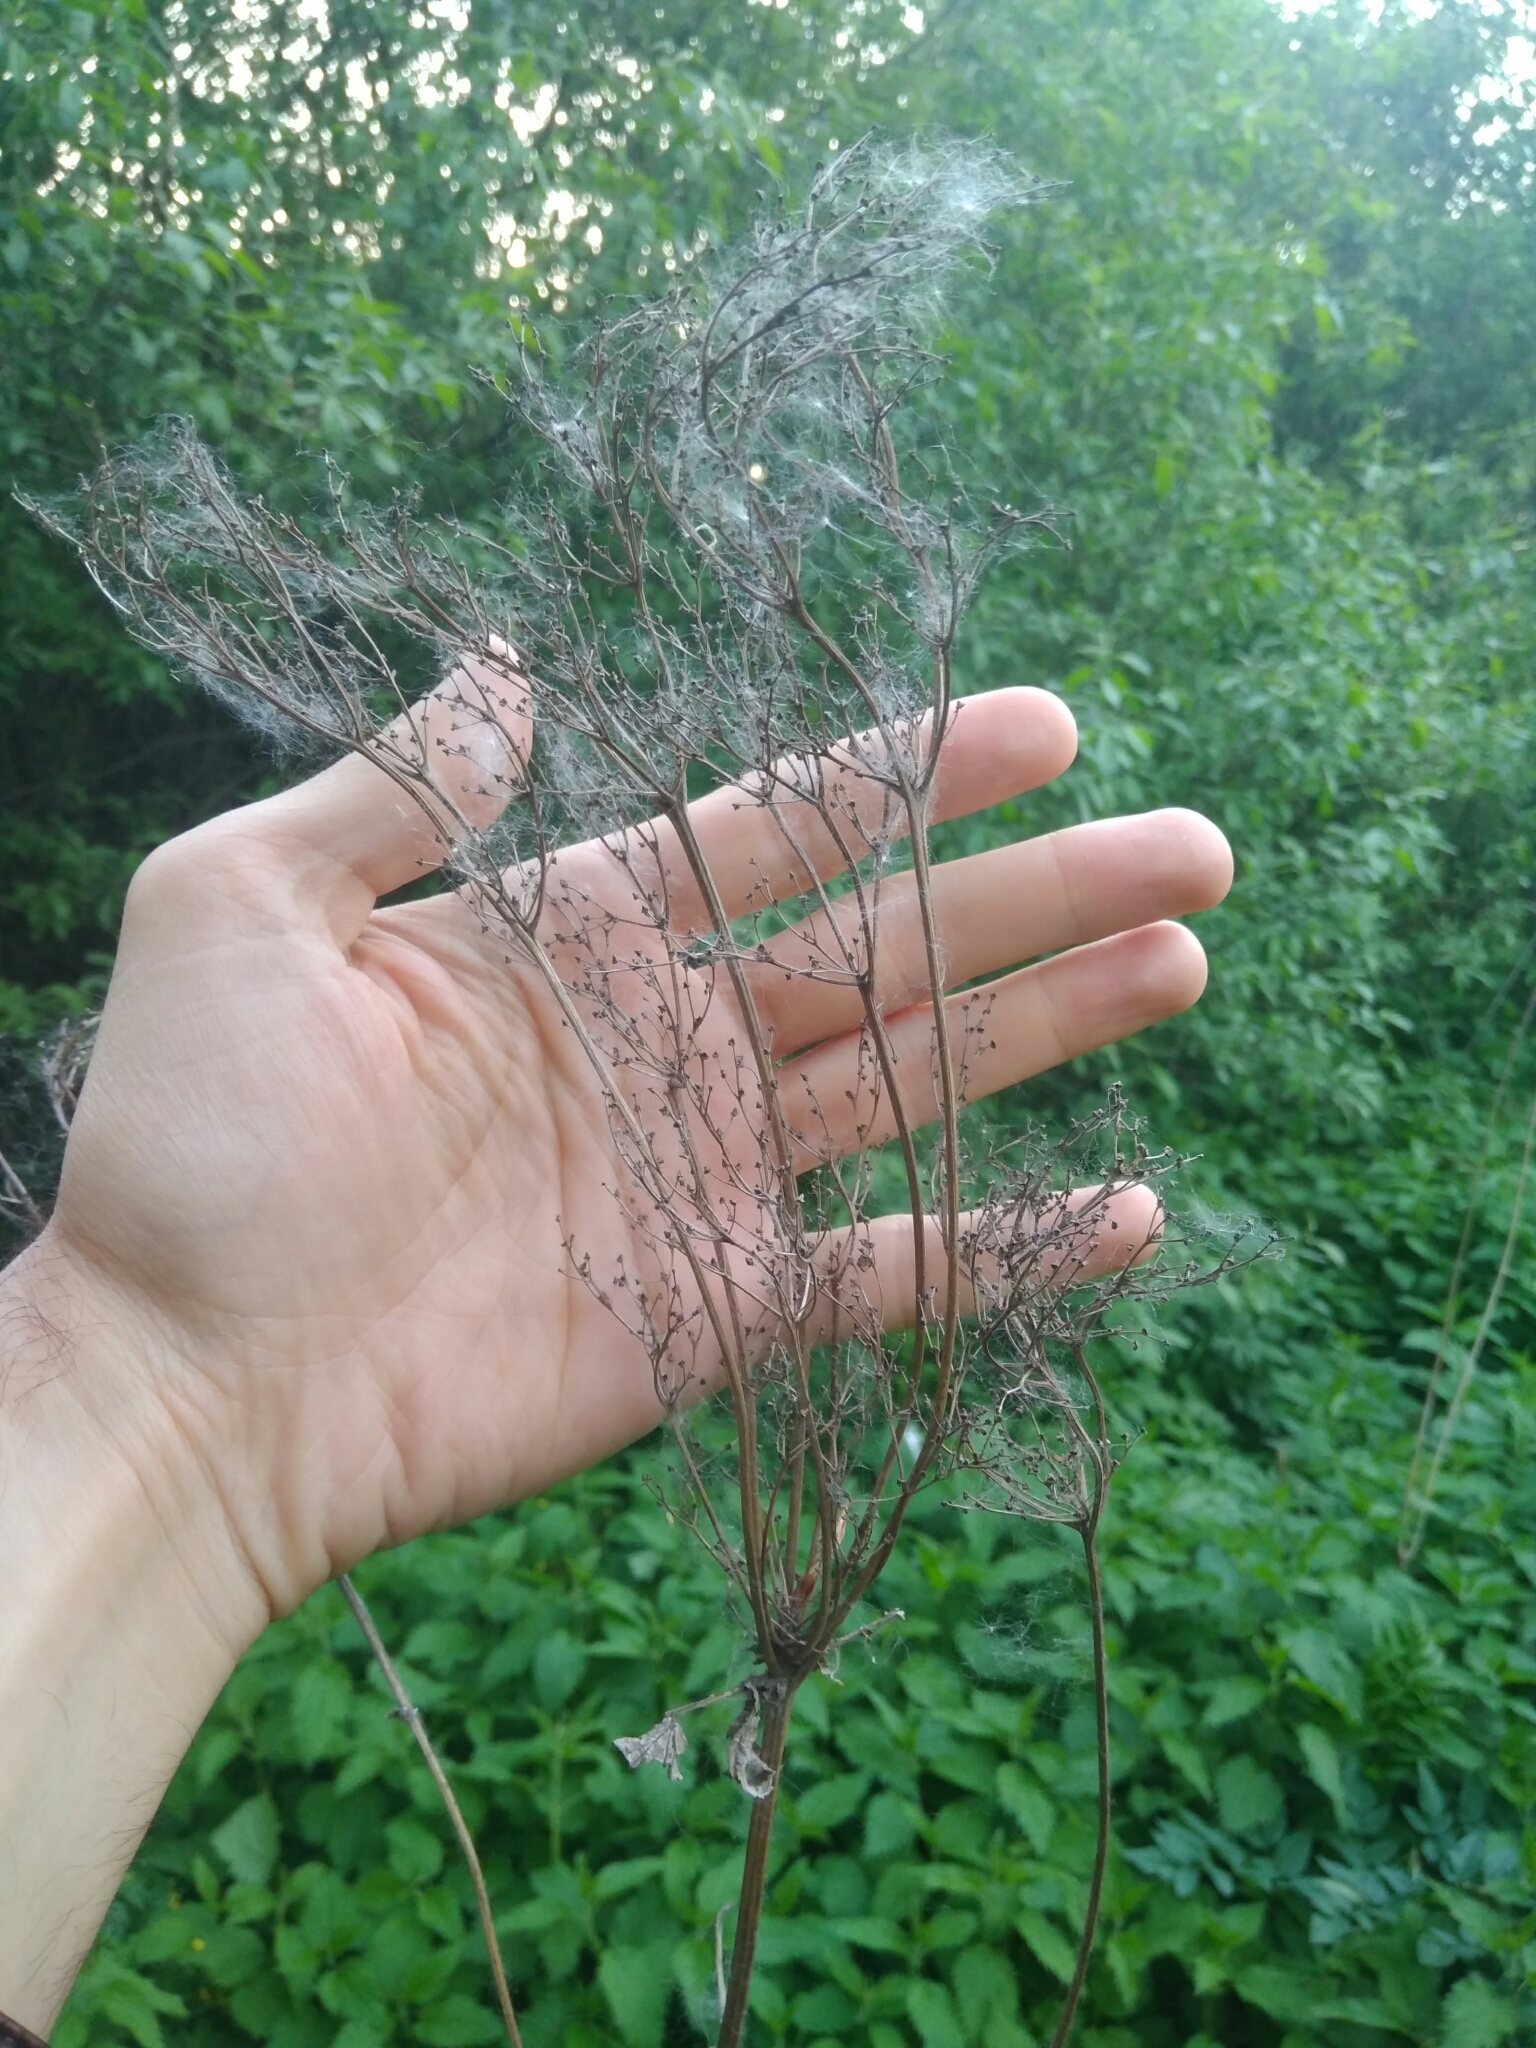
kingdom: Plantae
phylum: Tracheophyta
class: Magnoliopsida
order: Rosales
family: Rosaceae
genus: Filipendula
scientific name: Filipendula ulmaria
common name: Meadowsweet
